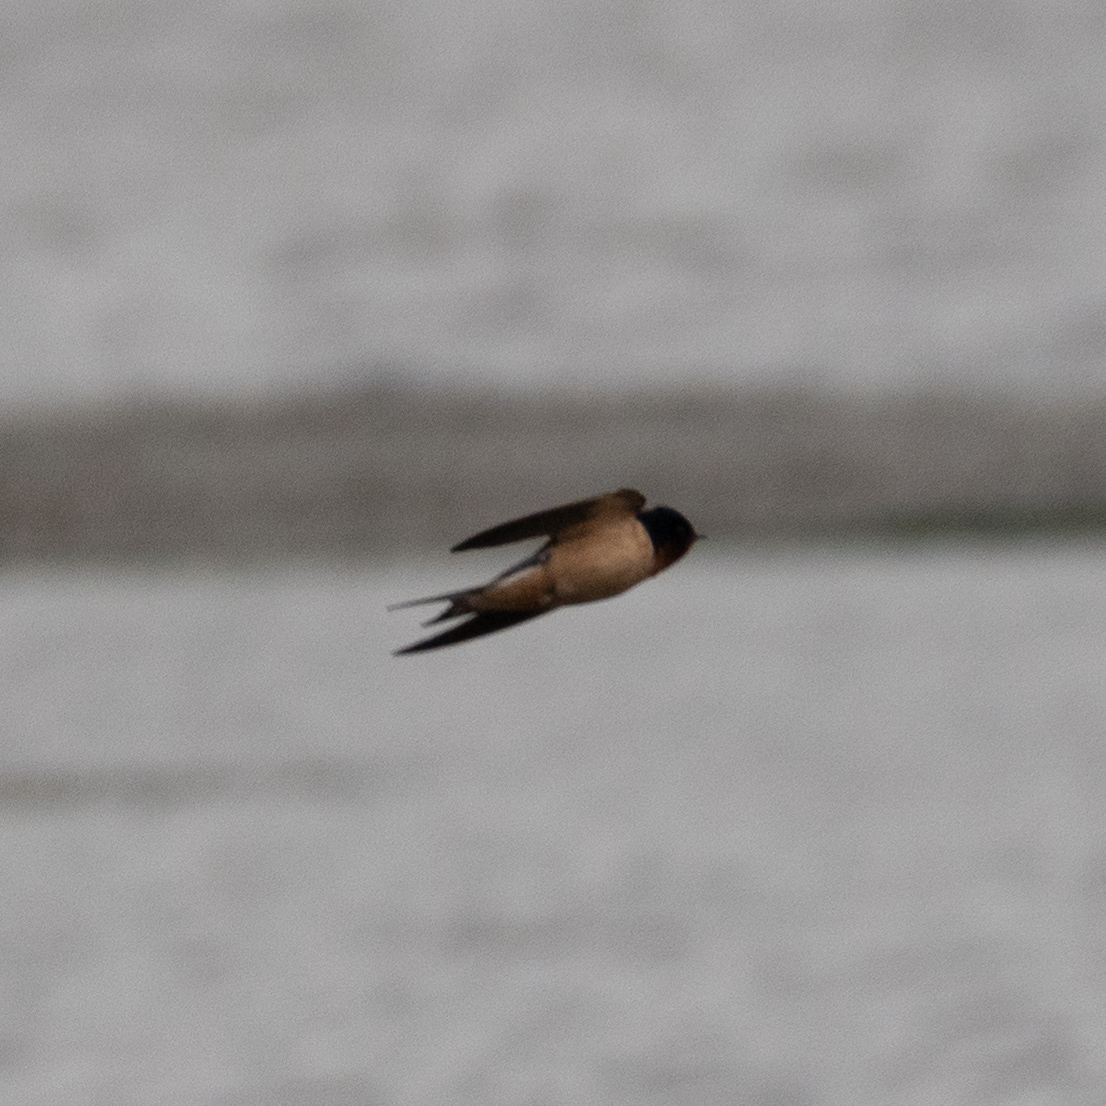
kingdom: Animalia
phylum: Chordata
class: Aves
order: Passeriformes
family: Hirundinidae
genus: Hirundo
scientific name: Hirundo rustica
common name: Barn swallow
